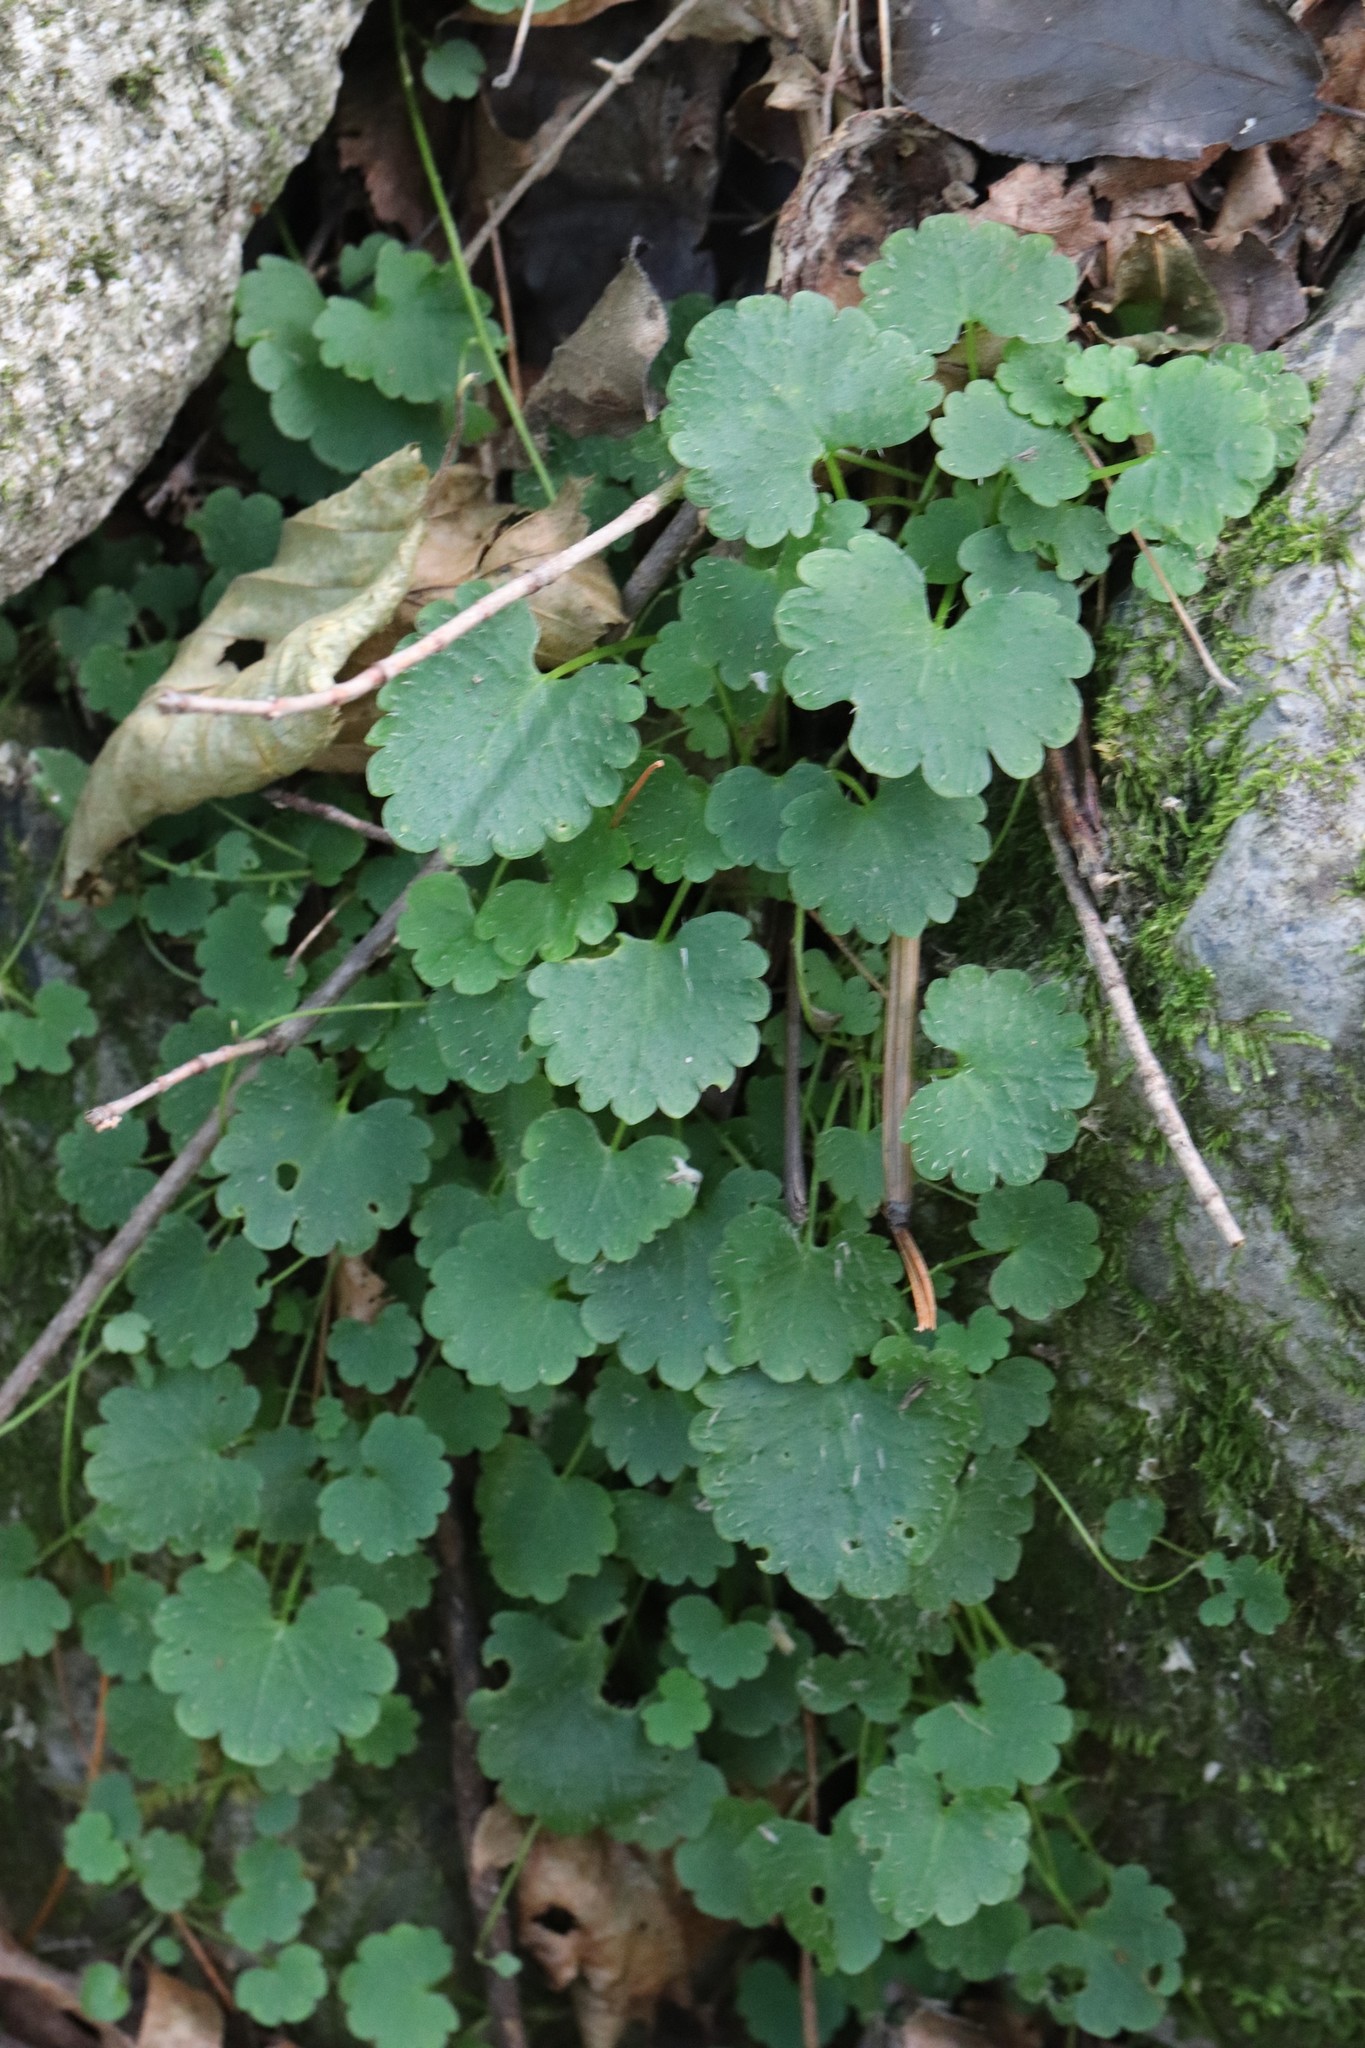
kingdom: Plantae
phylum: Tracheophyta
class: Magnoliopsida
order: Saxifragales
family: Saxifragaceae
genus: Chrysosplenium
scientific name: Chrysosplenium flagelliferum
